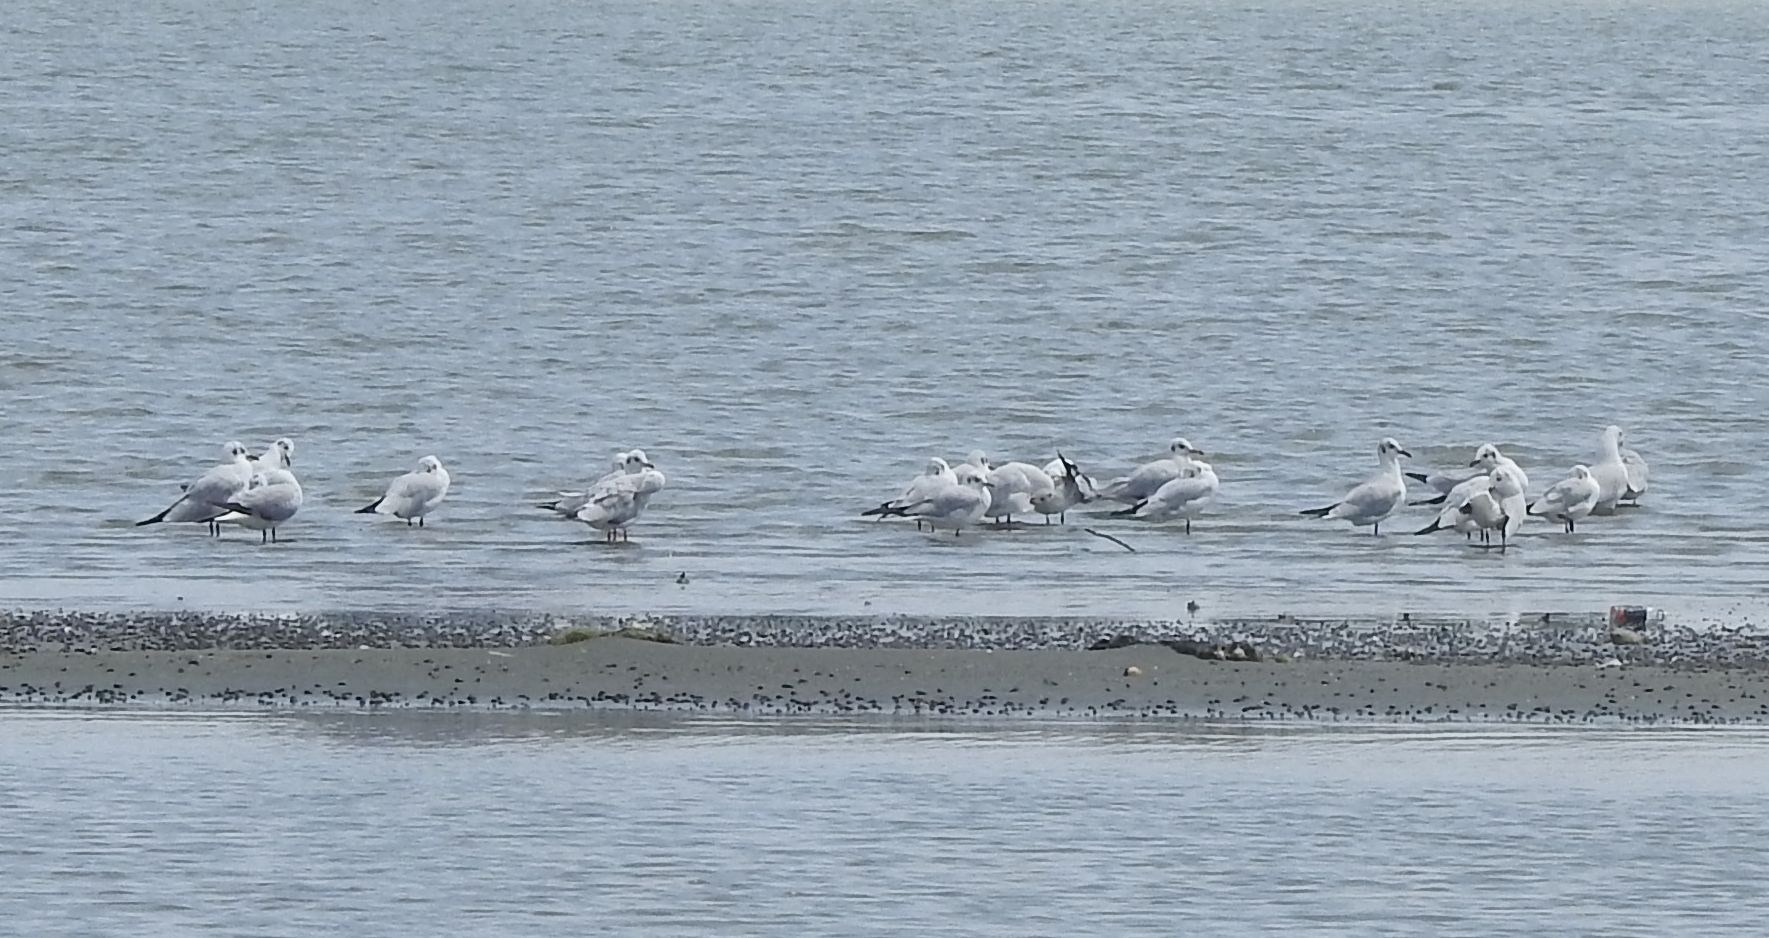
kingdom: Animalia
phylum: Chordata
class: Aves
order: Charadriiformes
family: Laridae
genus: Chroicocephalus
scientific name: Chroicocephalus ridibundus
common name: Black-headed gull
